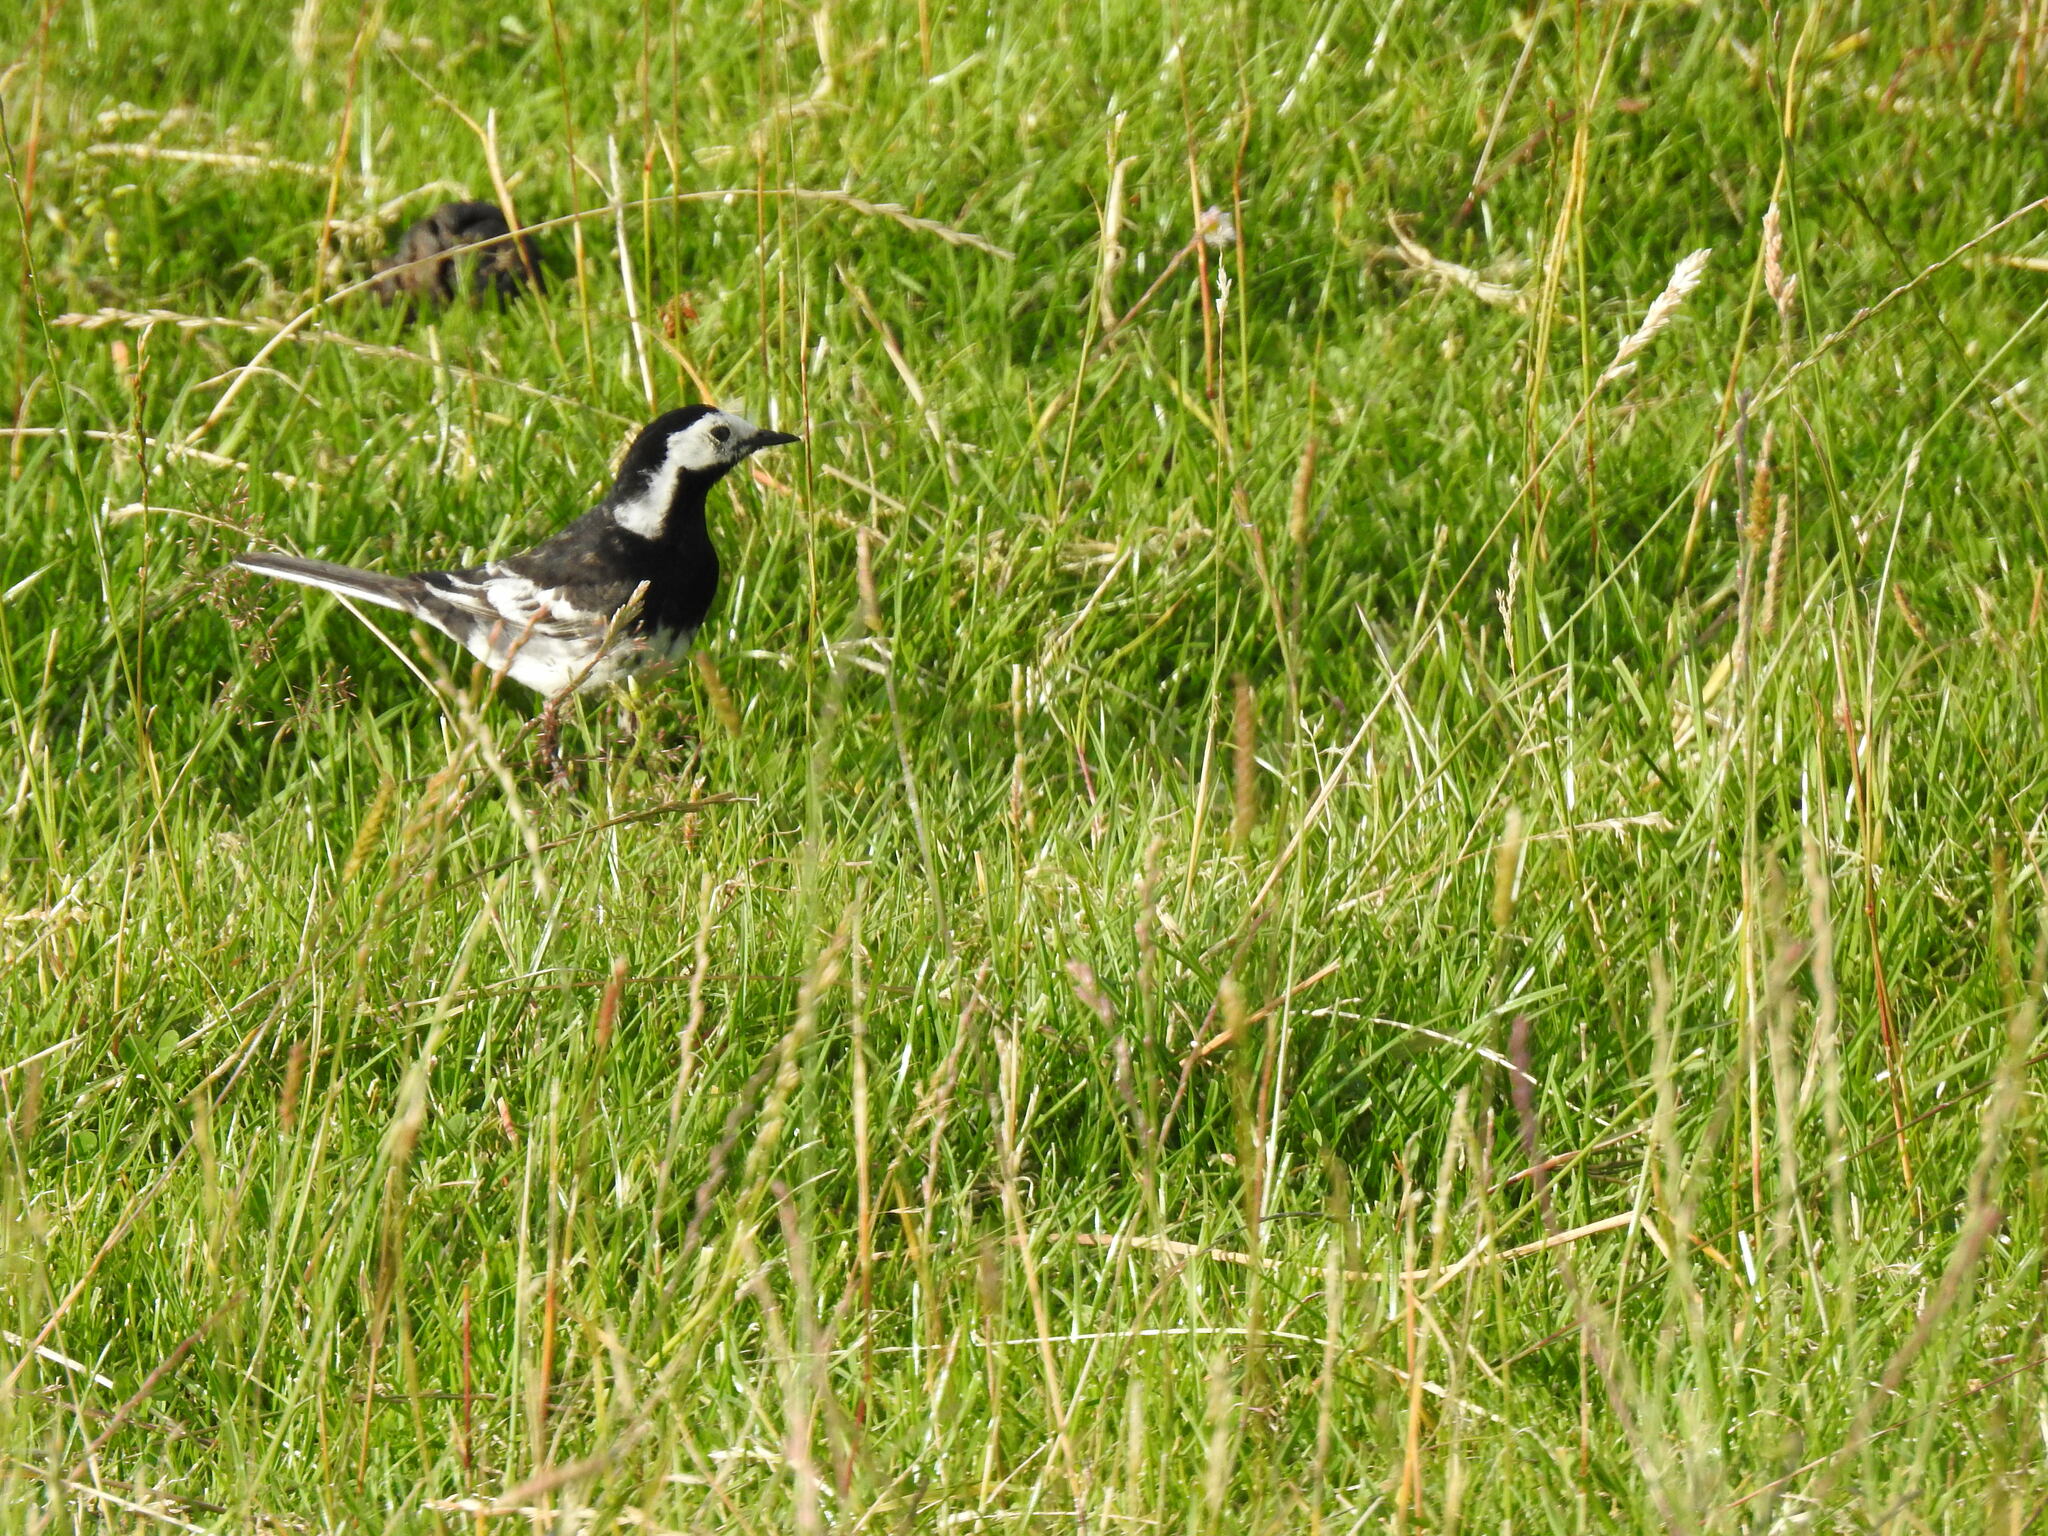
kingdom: Animalia
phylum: Chordata
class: Aves
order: Passeriformes
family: Motacillidae
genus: Motacilla
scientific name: Motacilla alba
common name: White wagtail
